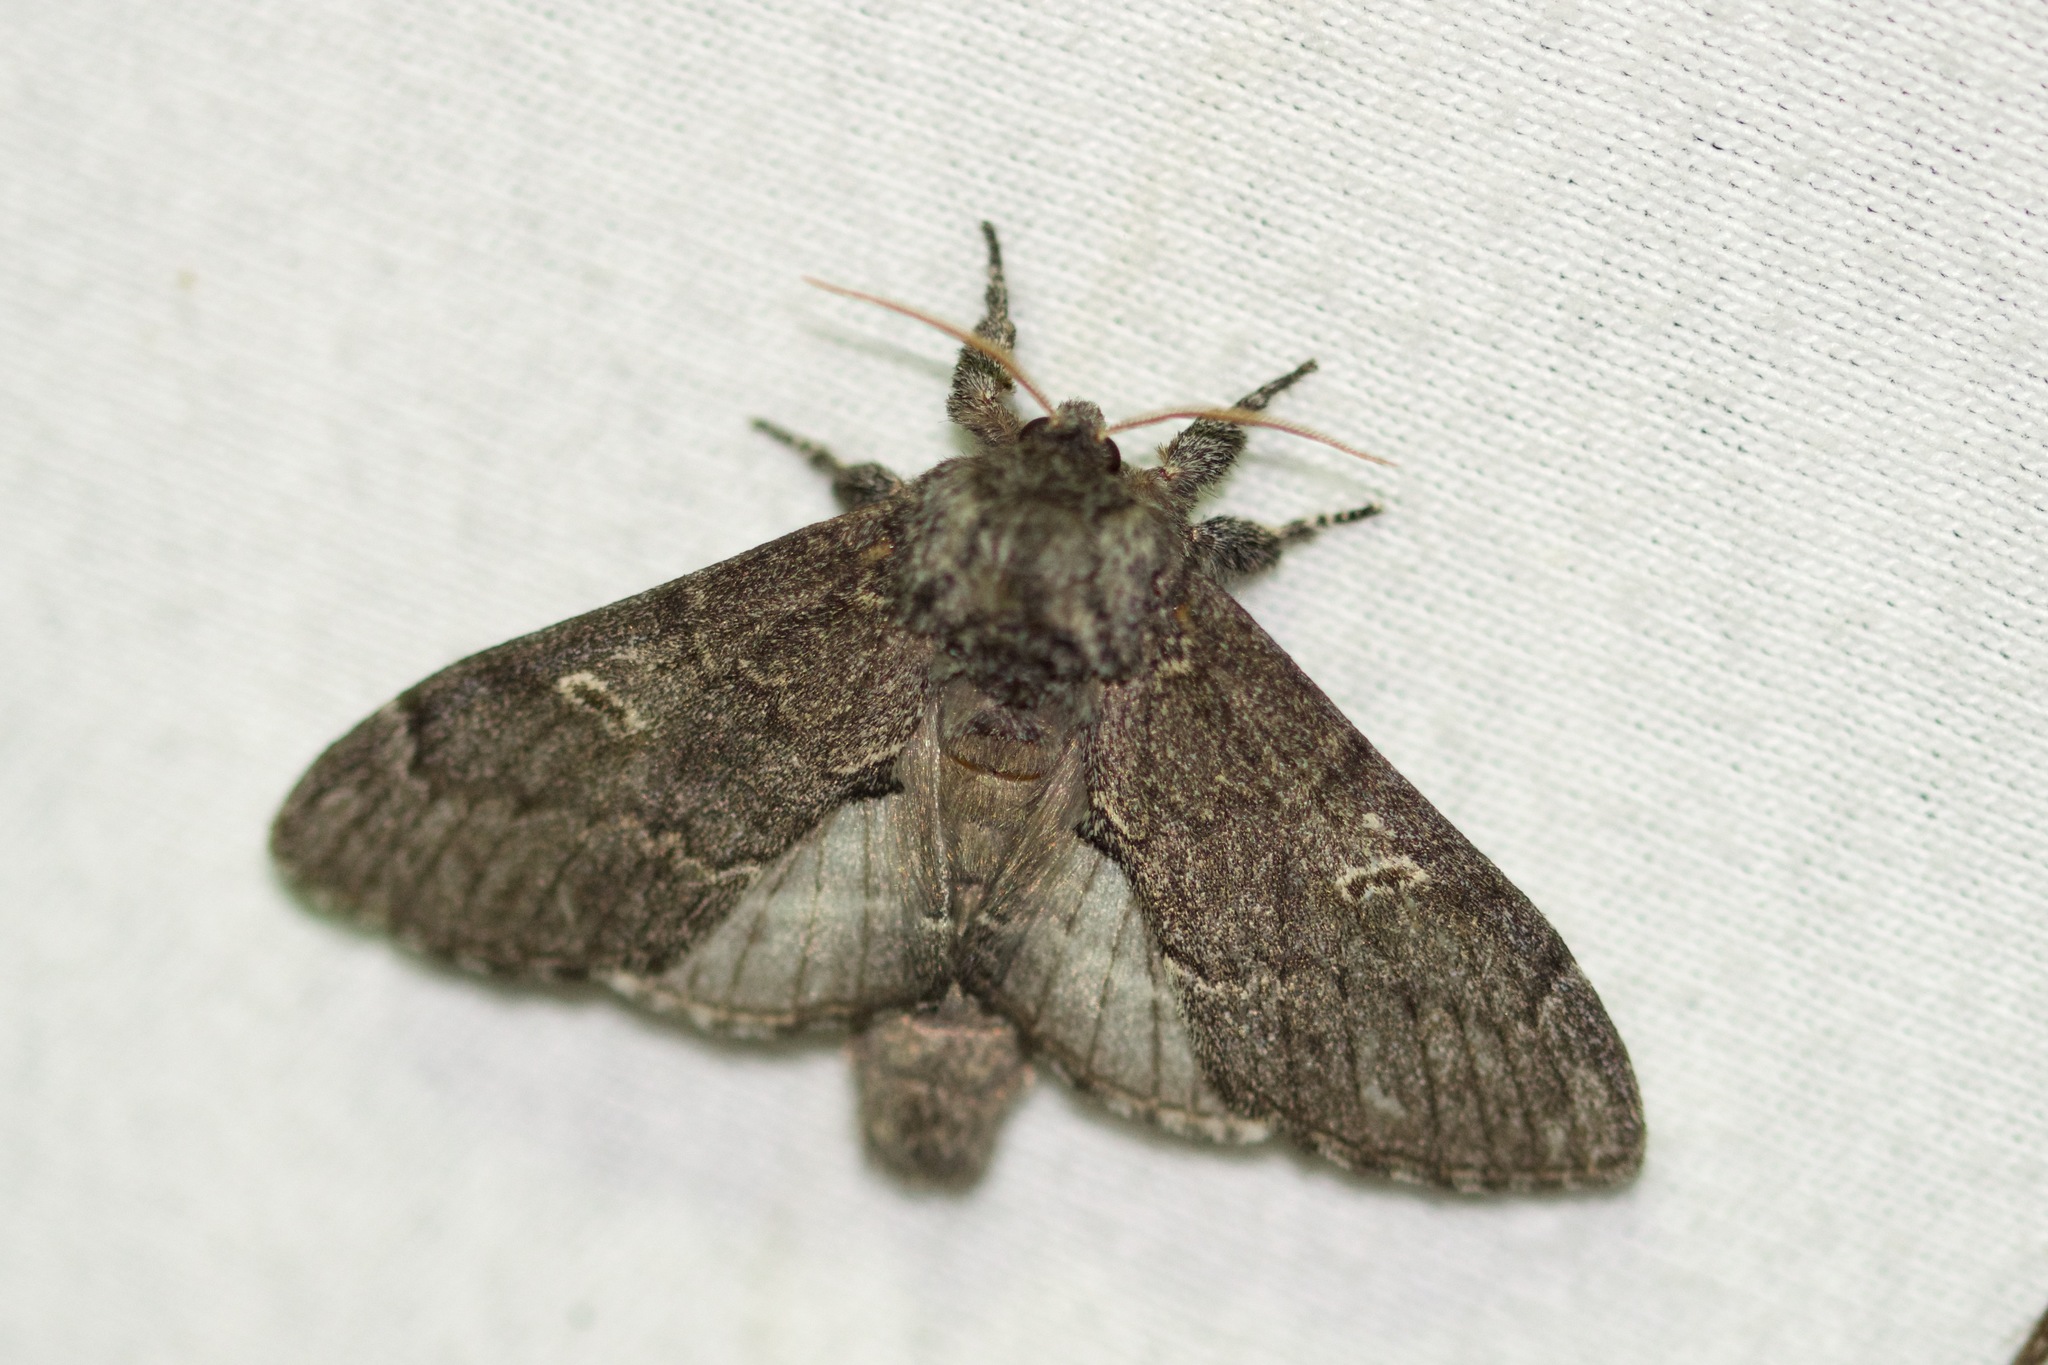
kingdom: Animalia
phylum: Arthropoda
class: Insecta
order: Lepidoptera
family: Notodontidae
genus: Notodonta
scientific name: Notodonta torva
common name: Large dark prominent
